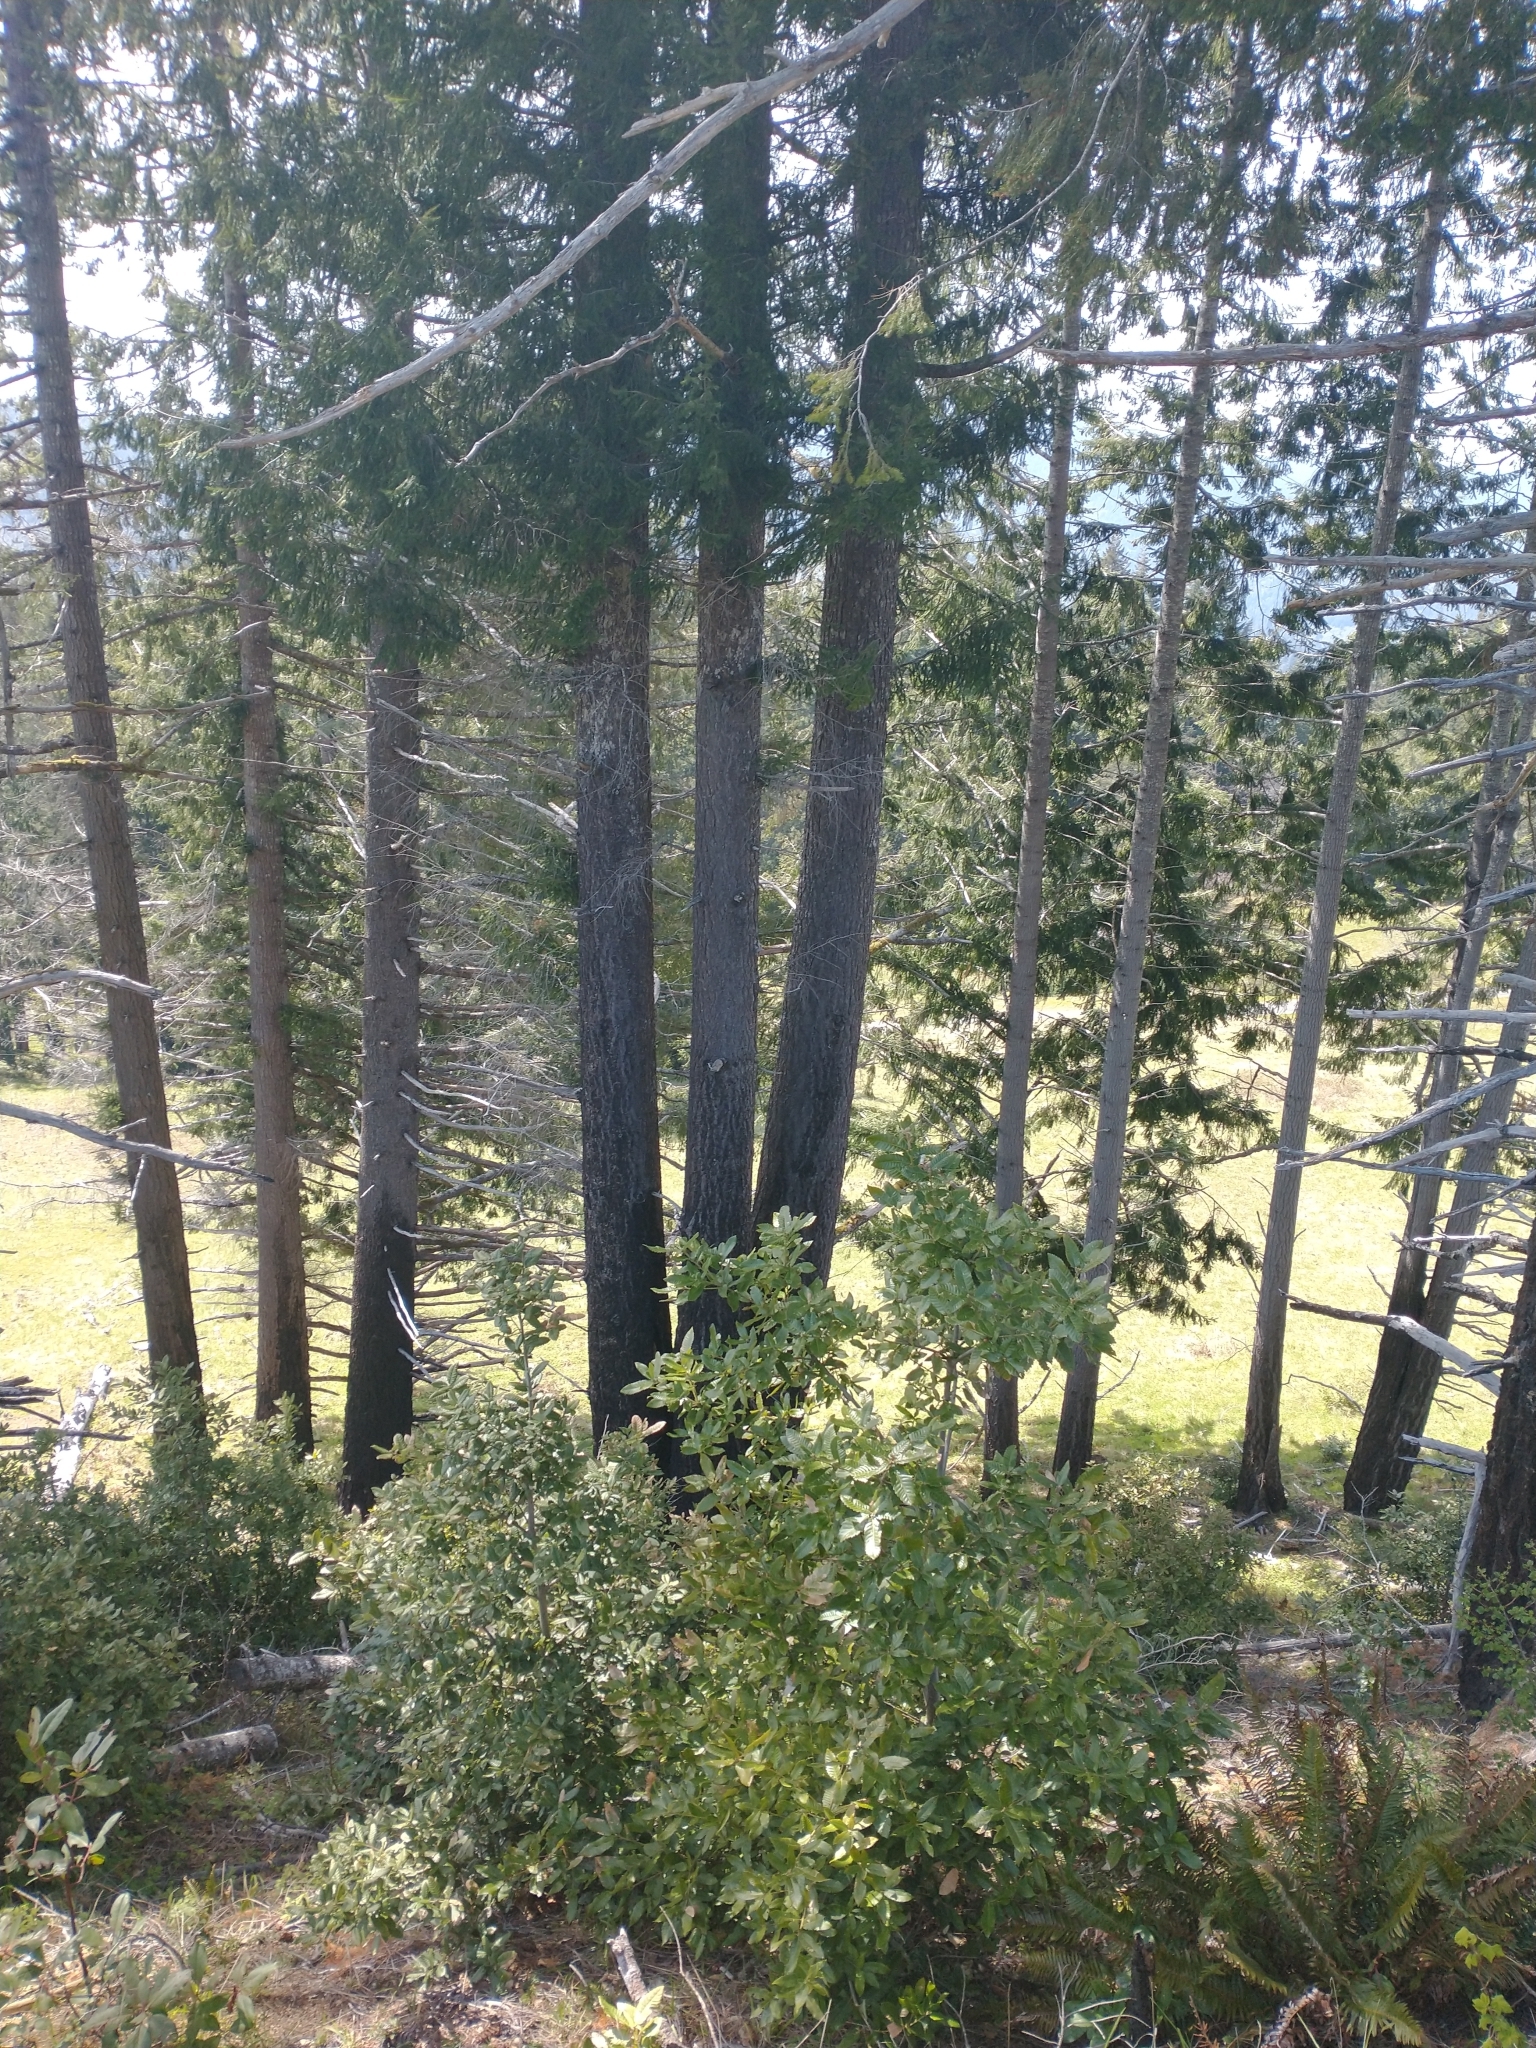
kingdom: Plantae
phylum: Tracheophyta
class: Pinopsida
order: Pinales
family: Pinaceae
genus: Pseudotsuga
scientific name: Pseudotsuga menziesii
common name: Douglas fir
